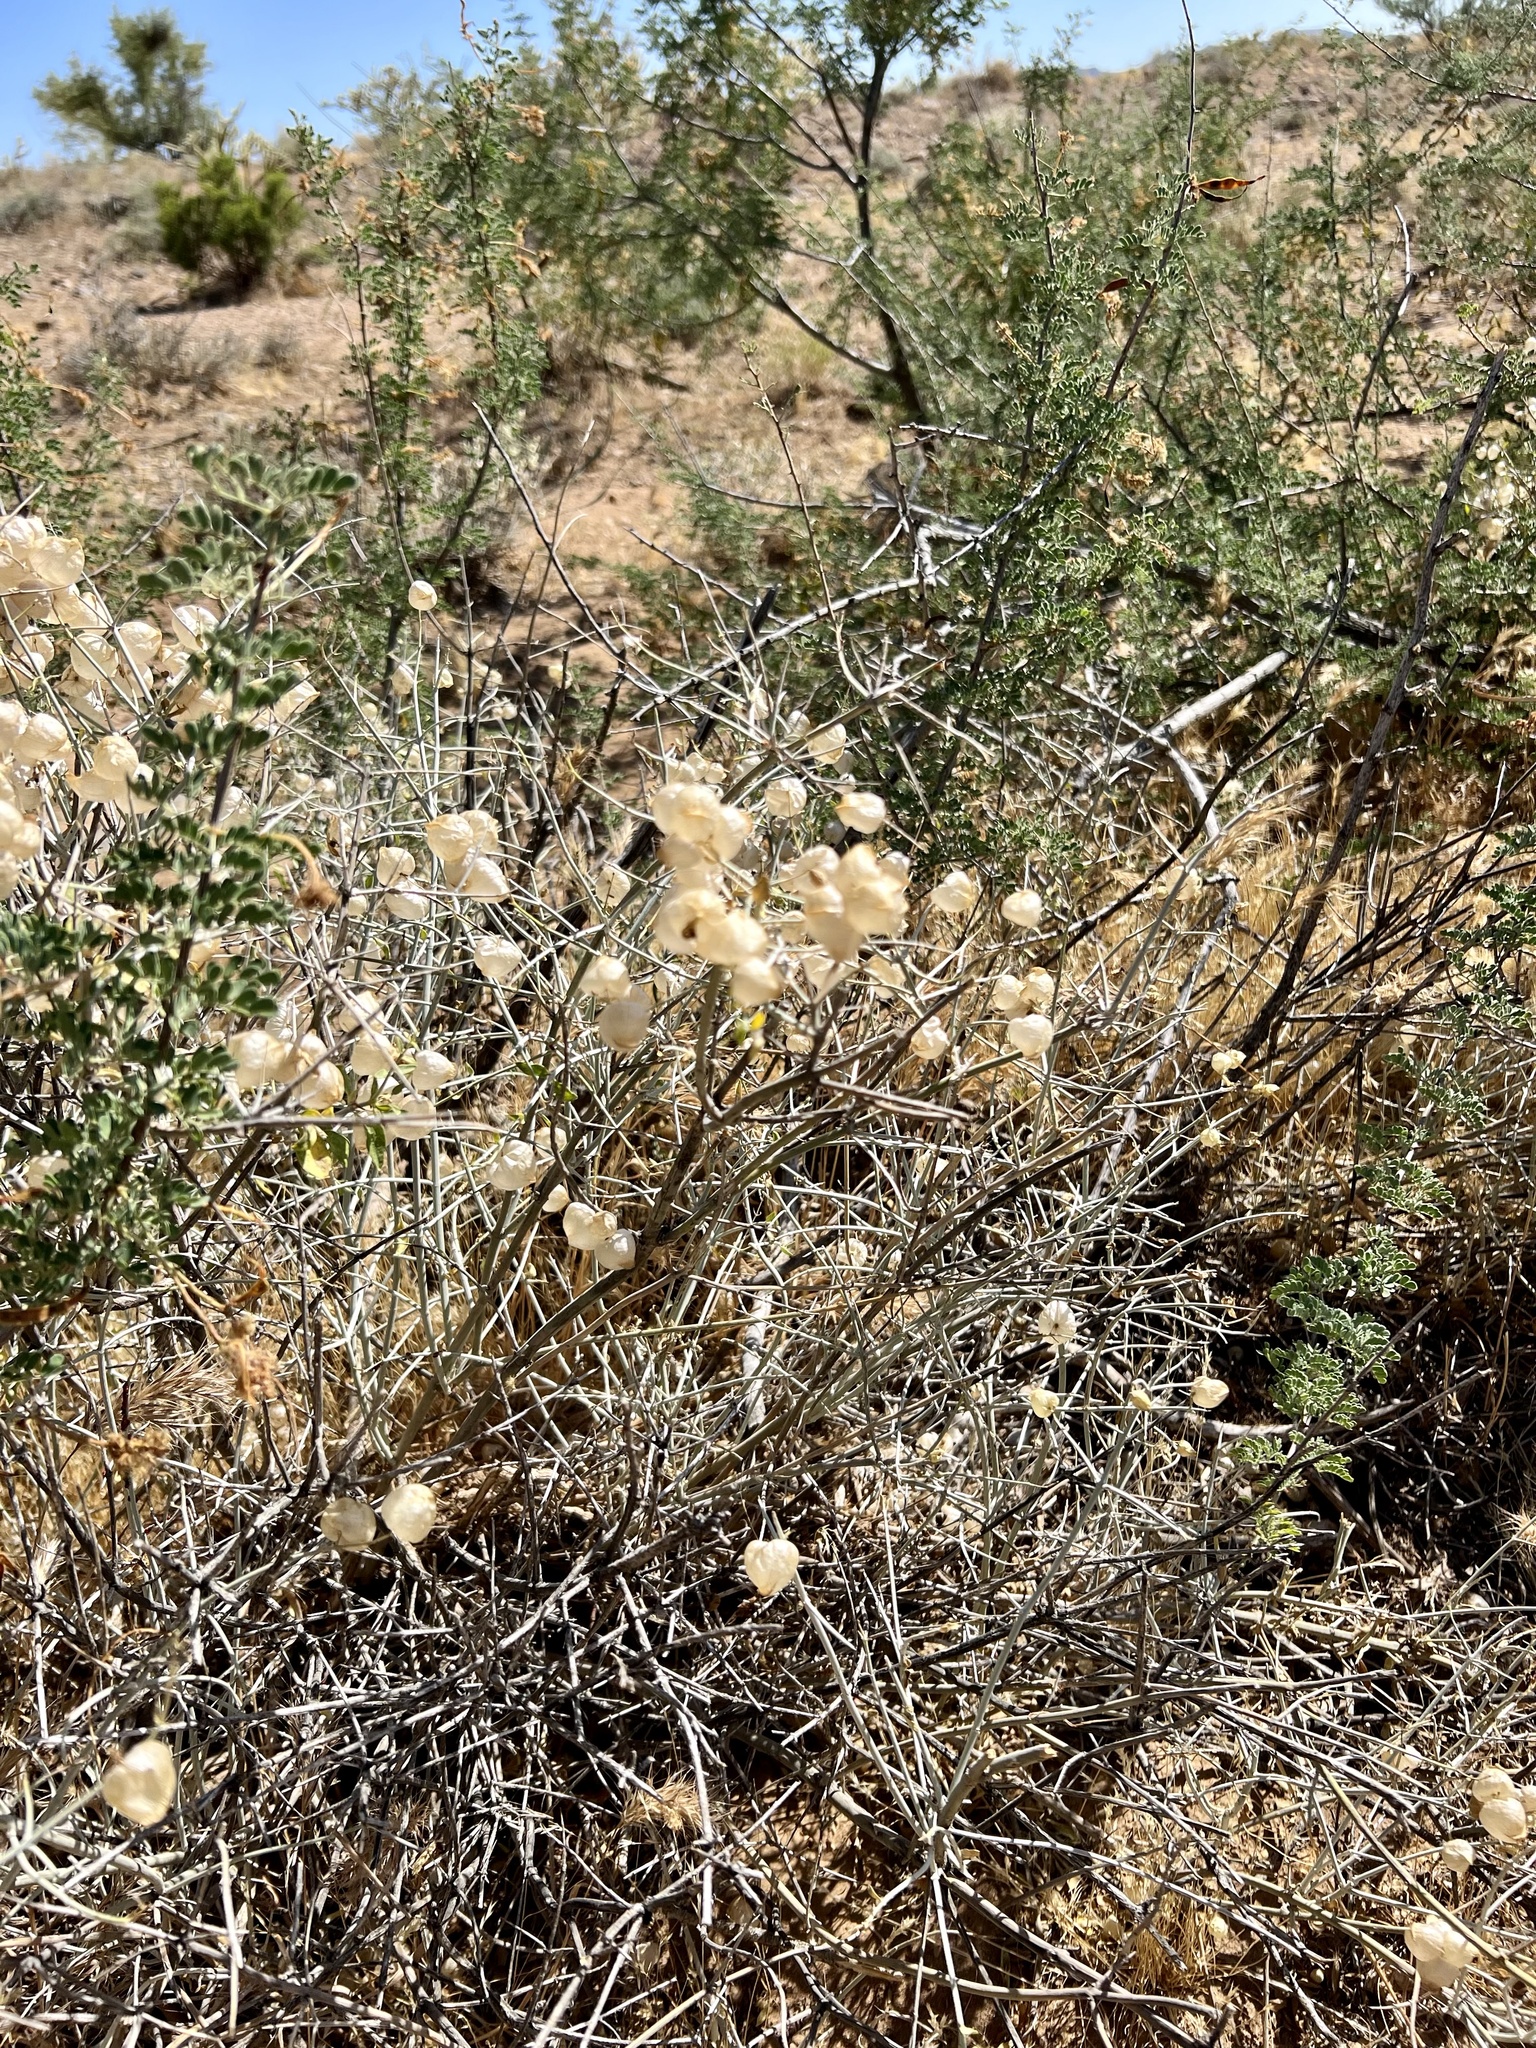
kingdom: Plantae
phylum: Tracheophyta
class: Magnoliopsida
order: Lamiales
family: Lamiaceae
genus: Scutellaria
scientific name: Scutellaria mexicana
